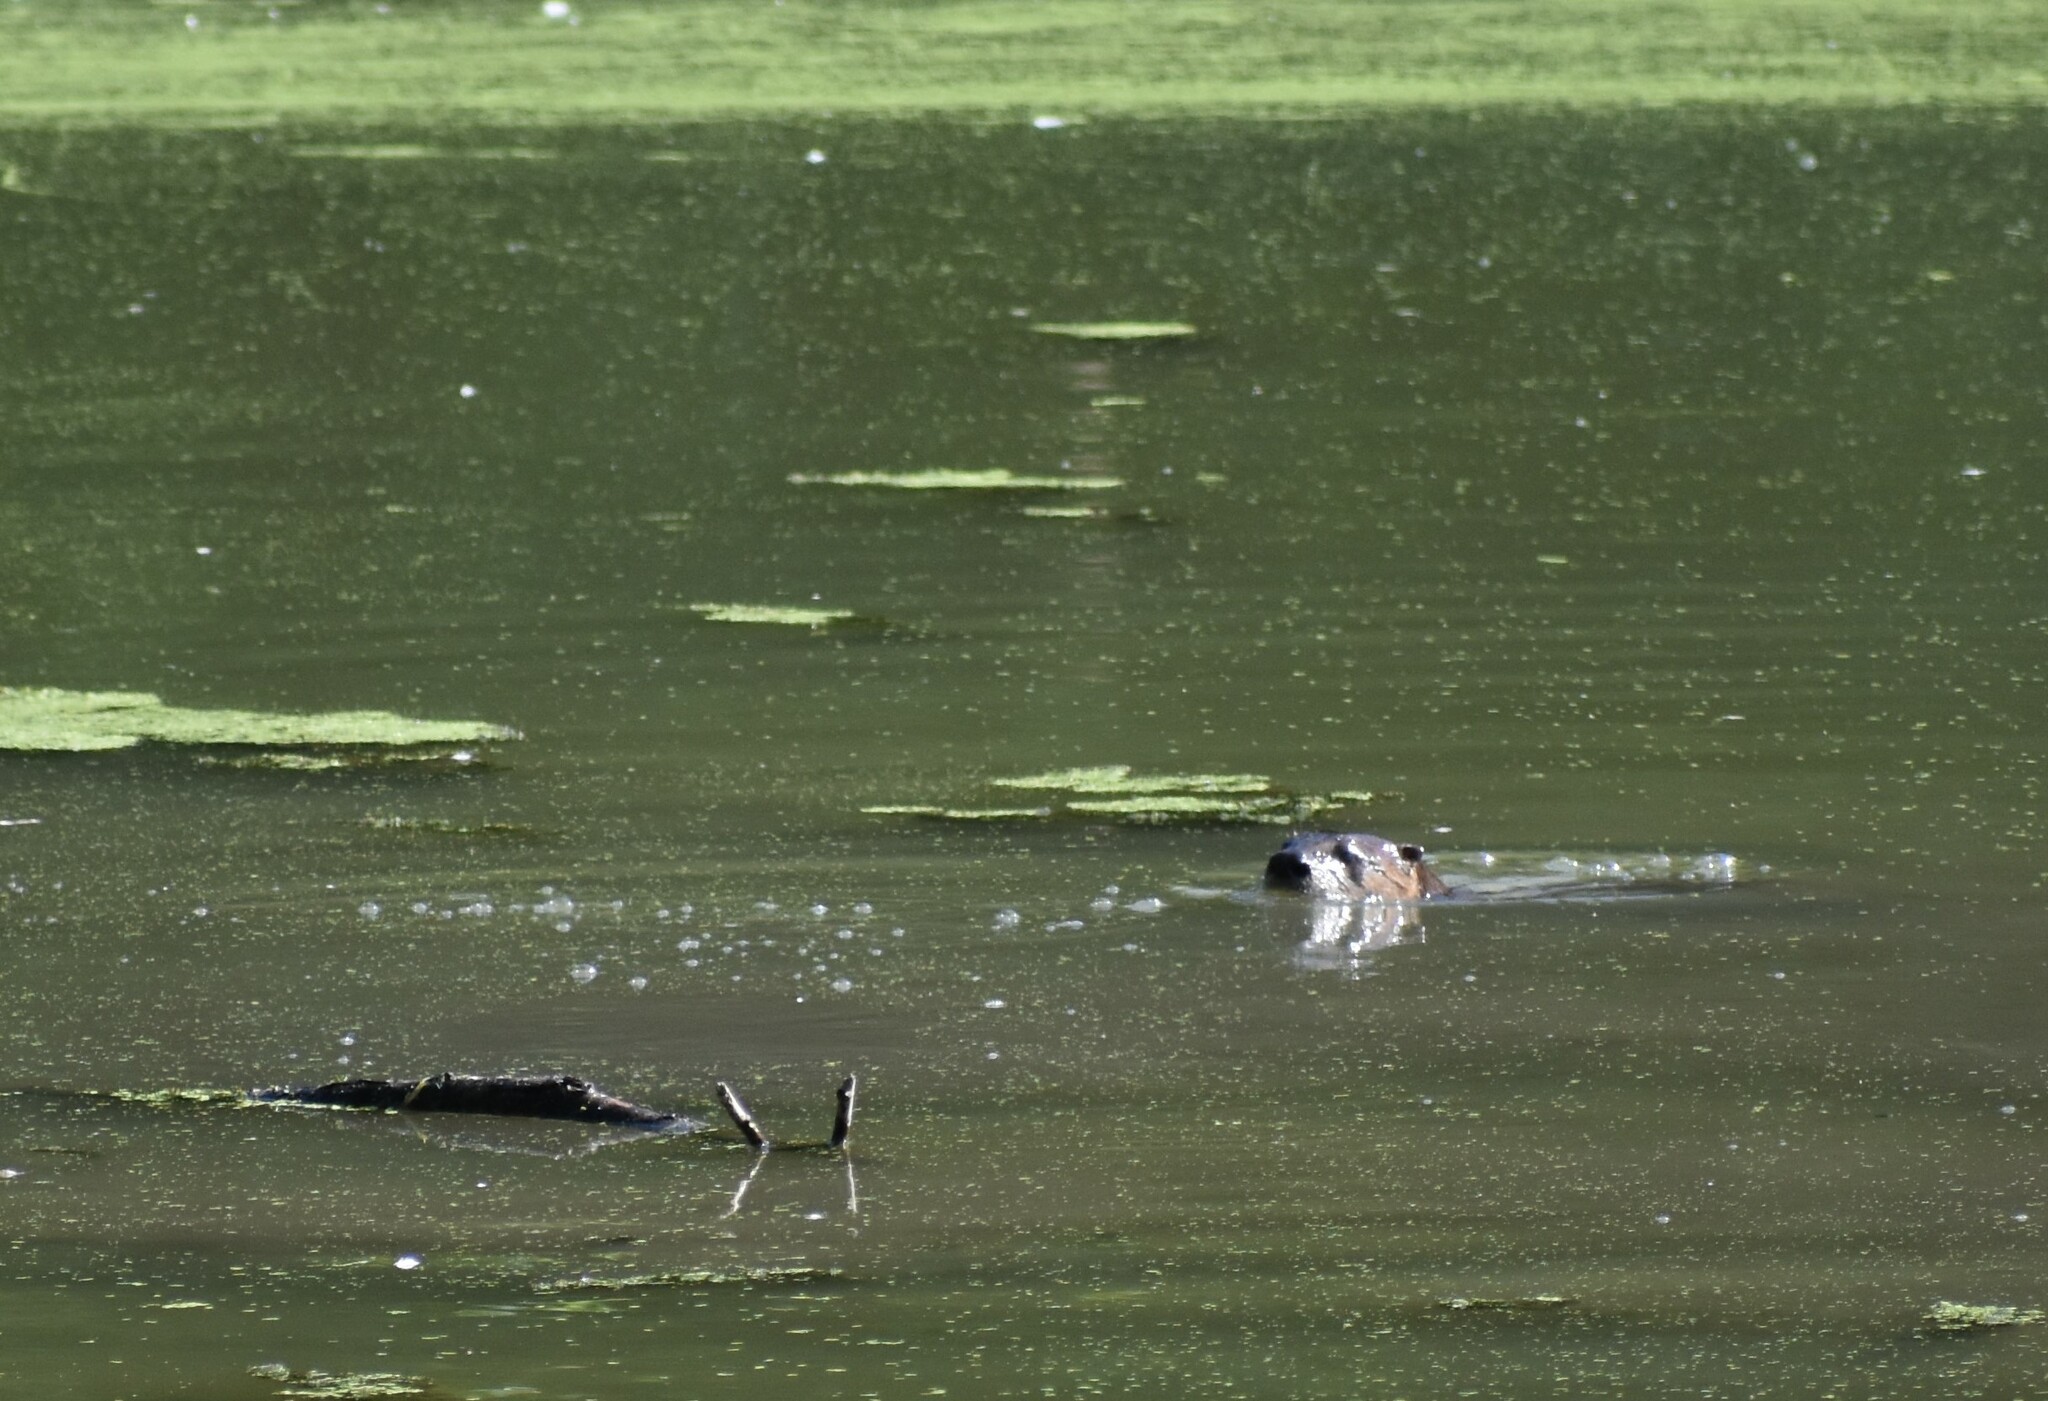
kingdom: Animalia
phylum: Chordata
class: Mammalia
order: Carnivora
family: Mustelidae
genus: Lontra
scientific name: Lontra canadensis
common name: North american river otter
